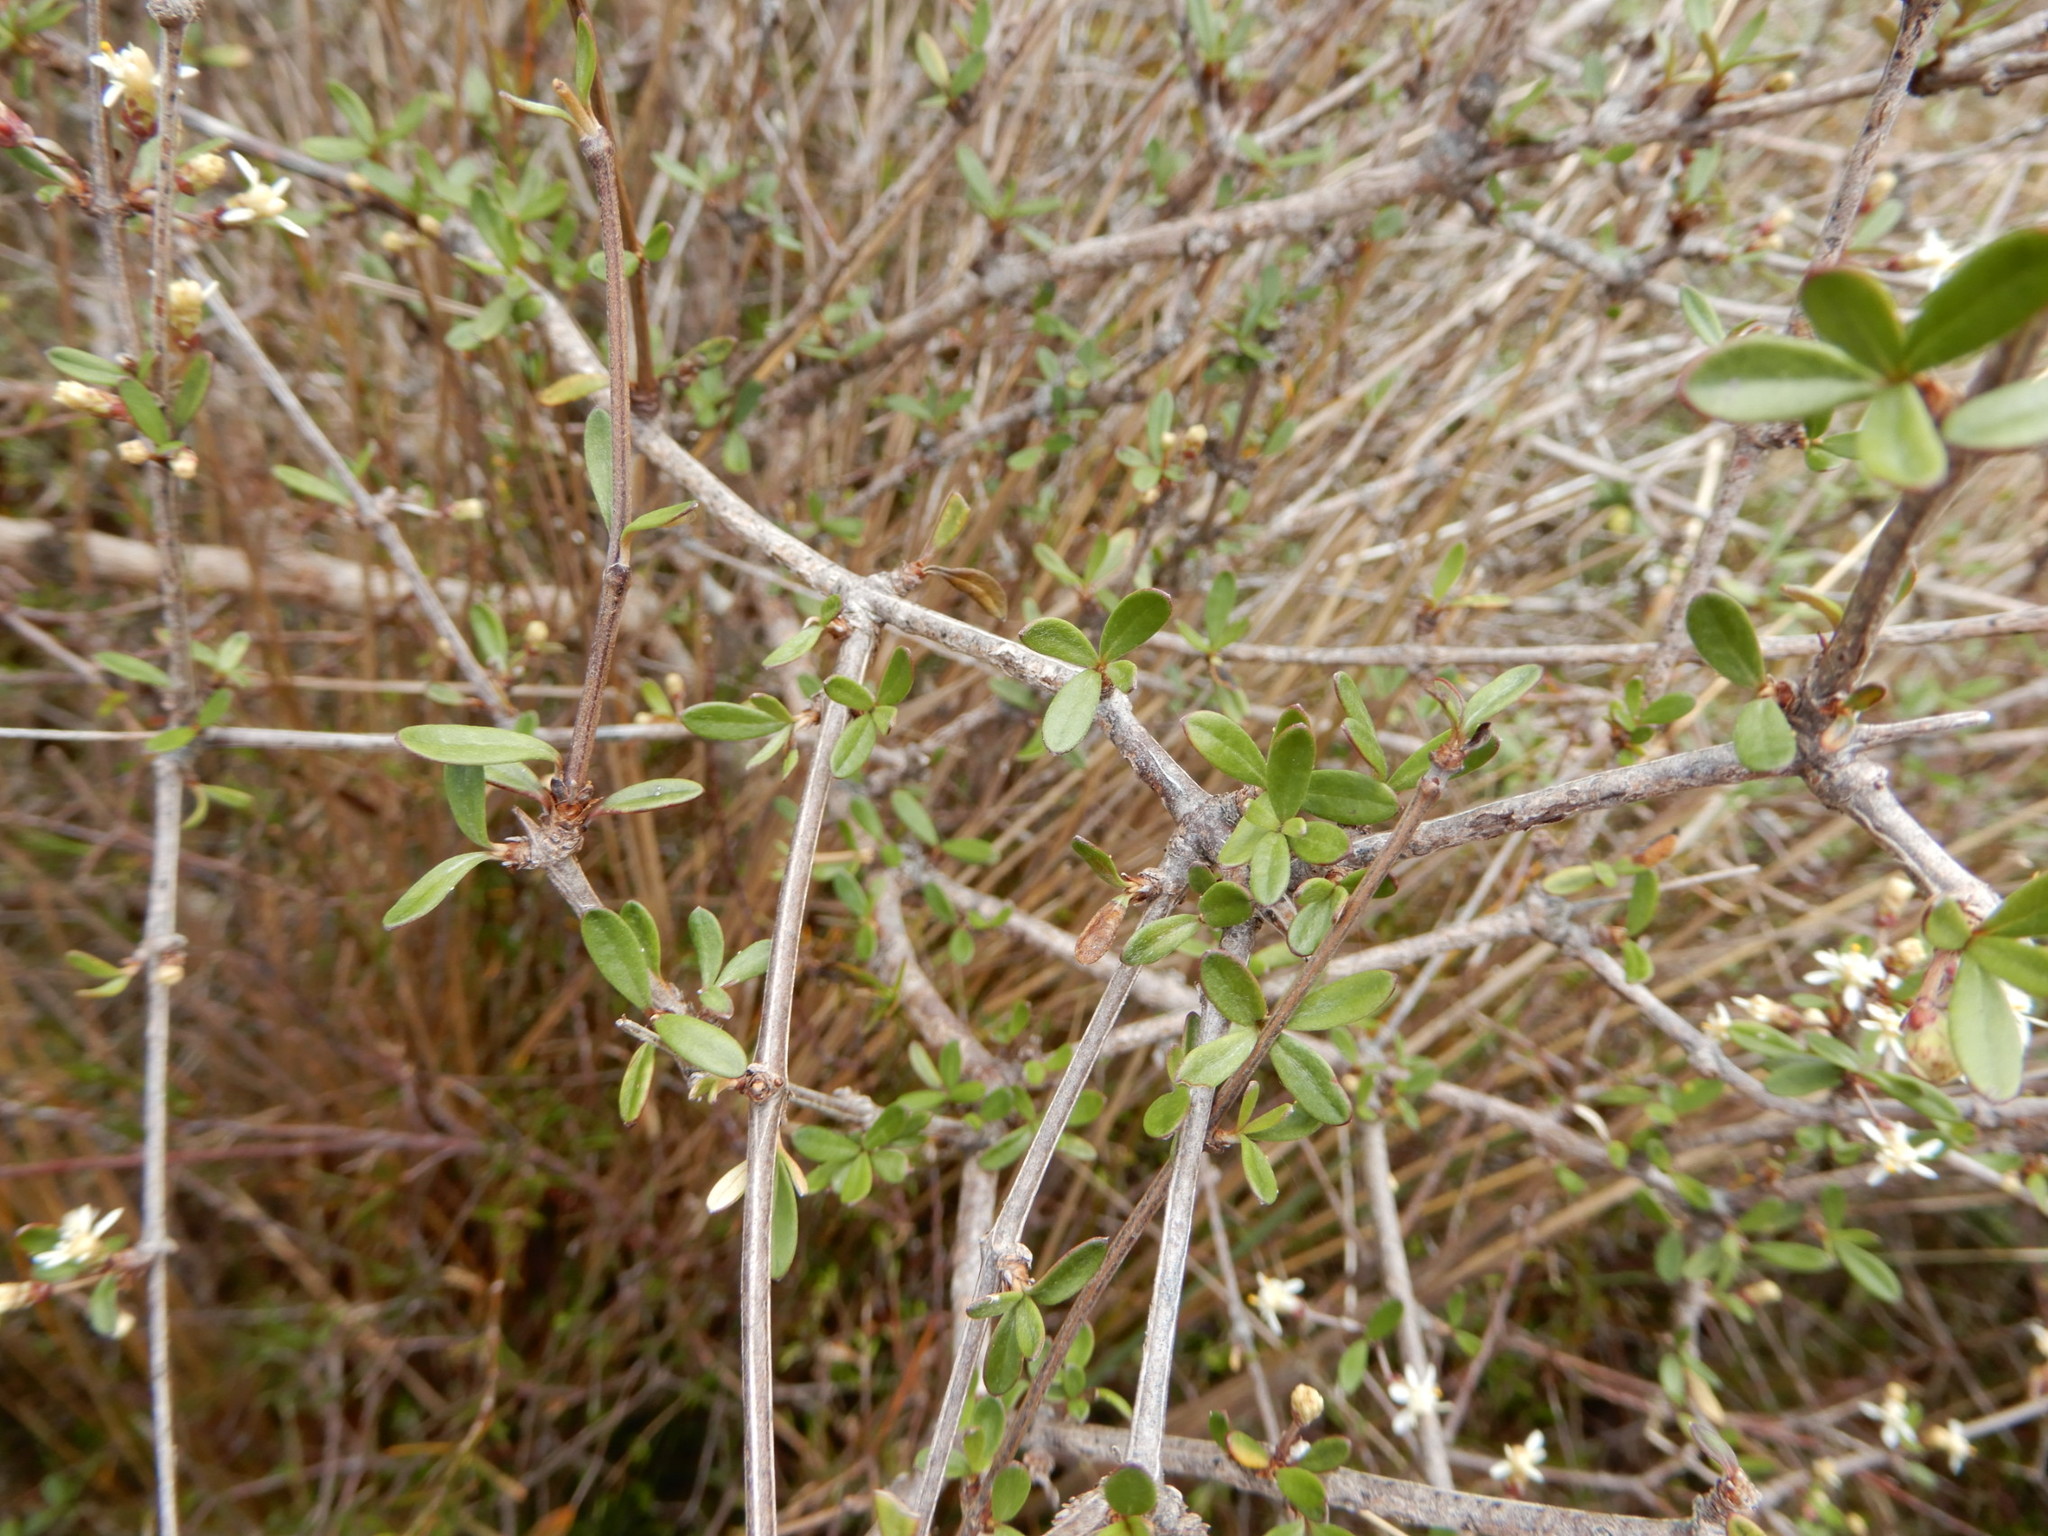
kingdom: Plantae
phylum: Tracheophyta
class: Magnoliopsida
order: Asterales
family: Asteraceae
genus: Olearia
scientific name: Olearia virgata
